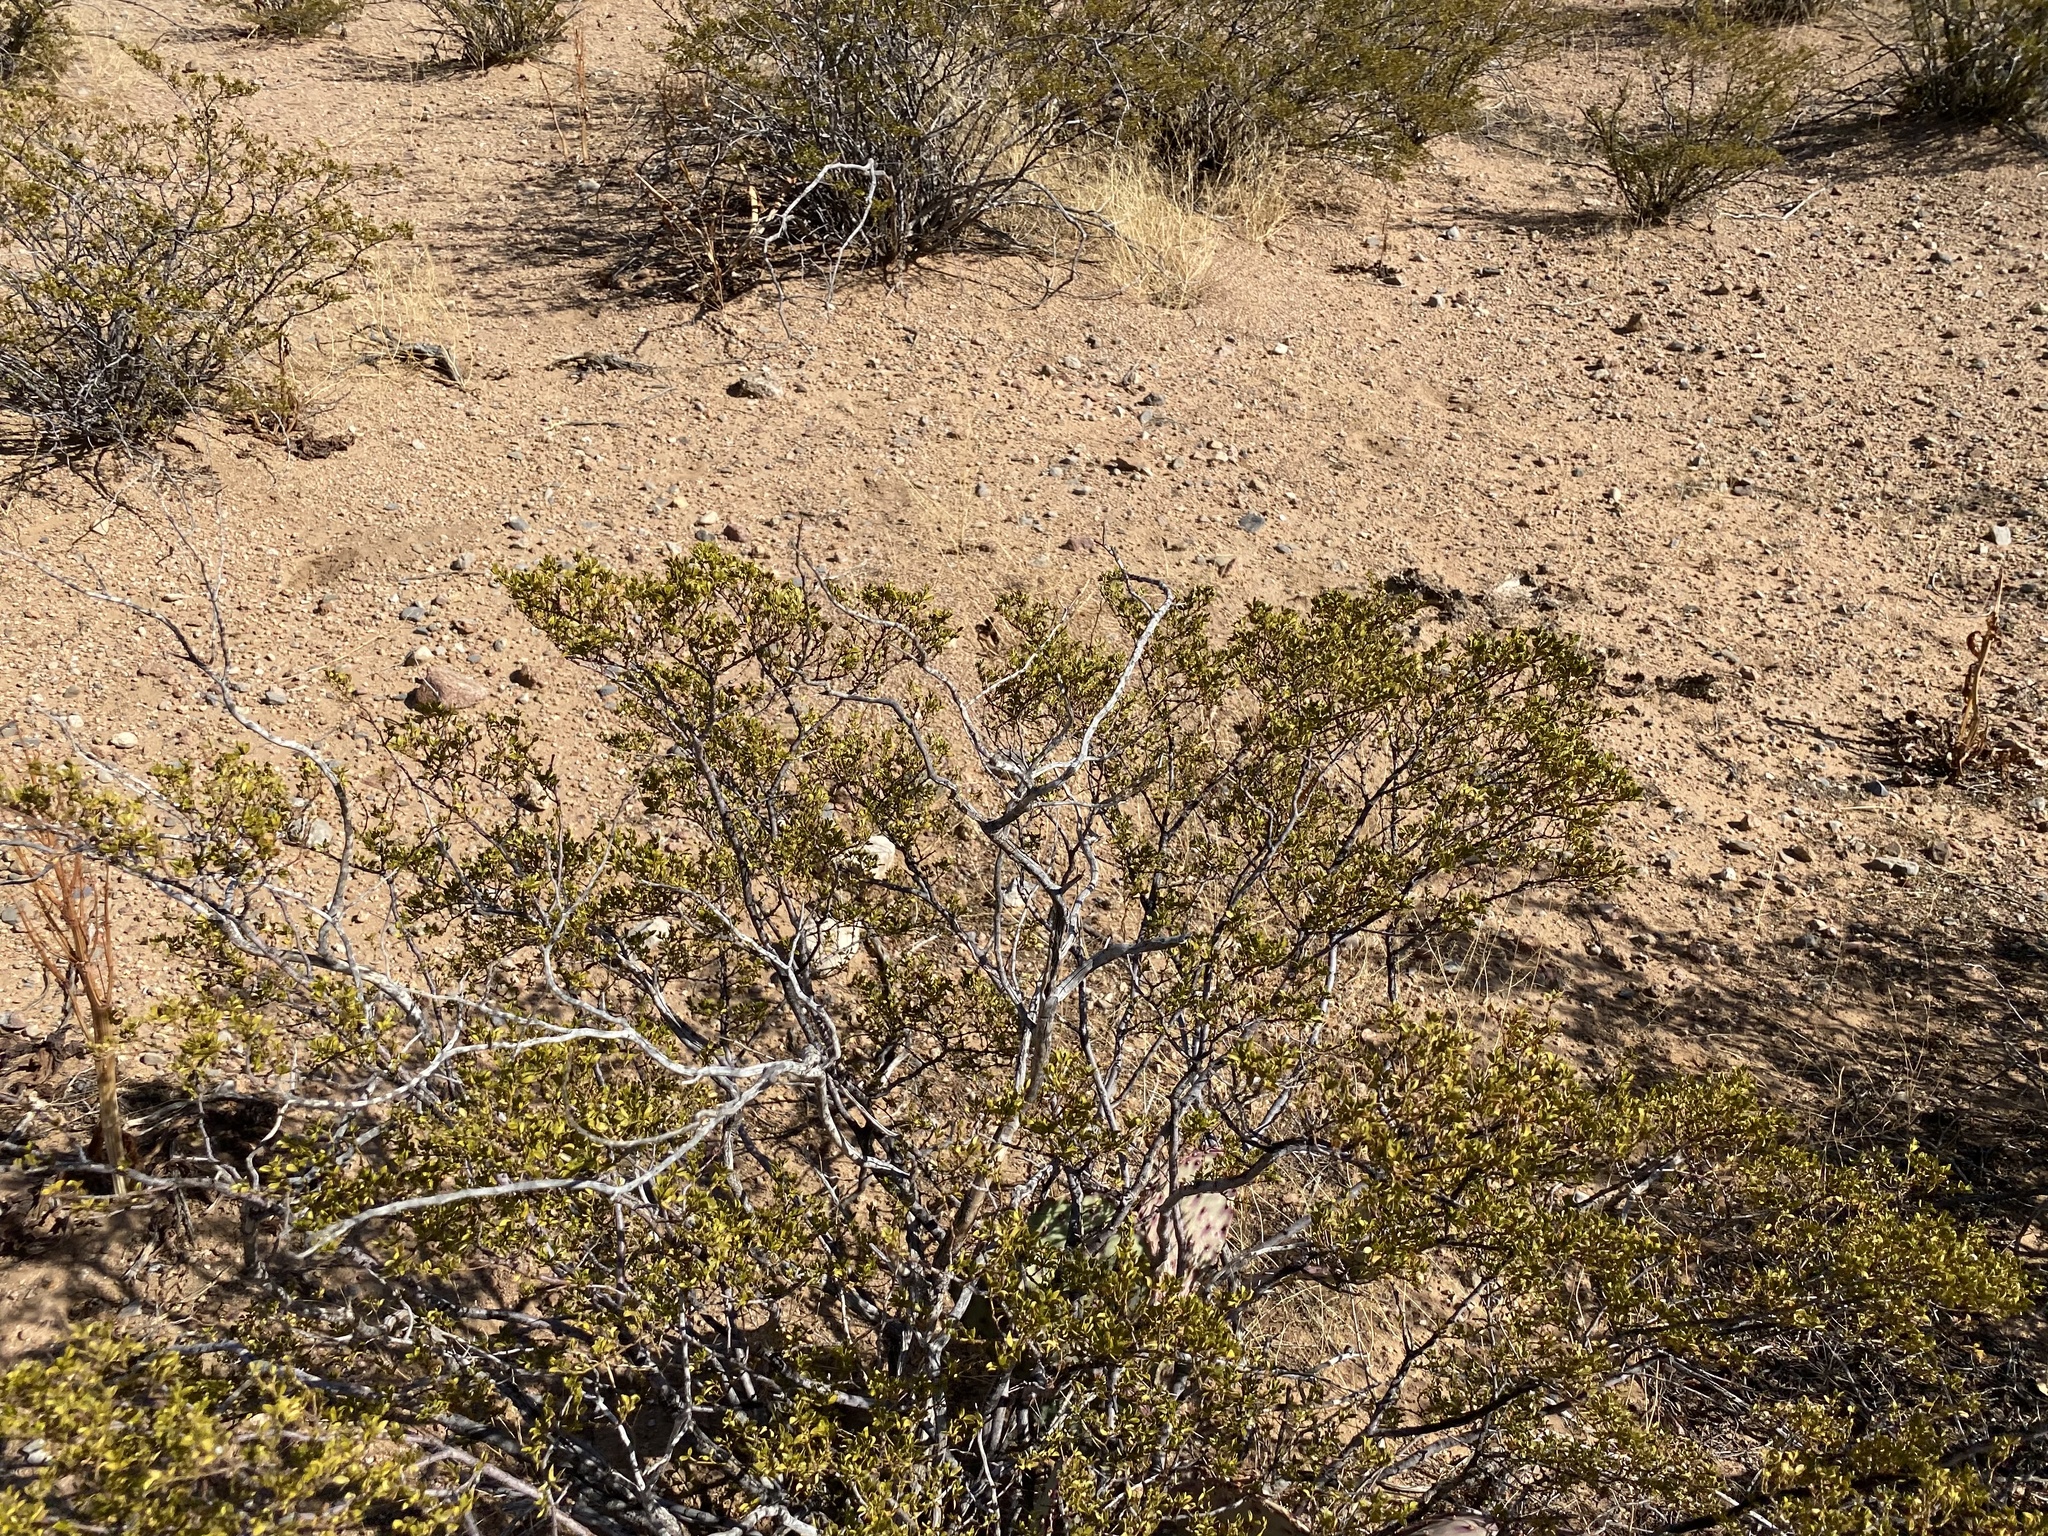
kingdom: Plantae
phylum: Tracheophyta
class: Magnoliopsida
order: Zygophyllales
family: Zygophyllaceae
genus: Larrea
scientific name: Larrea tridentata
